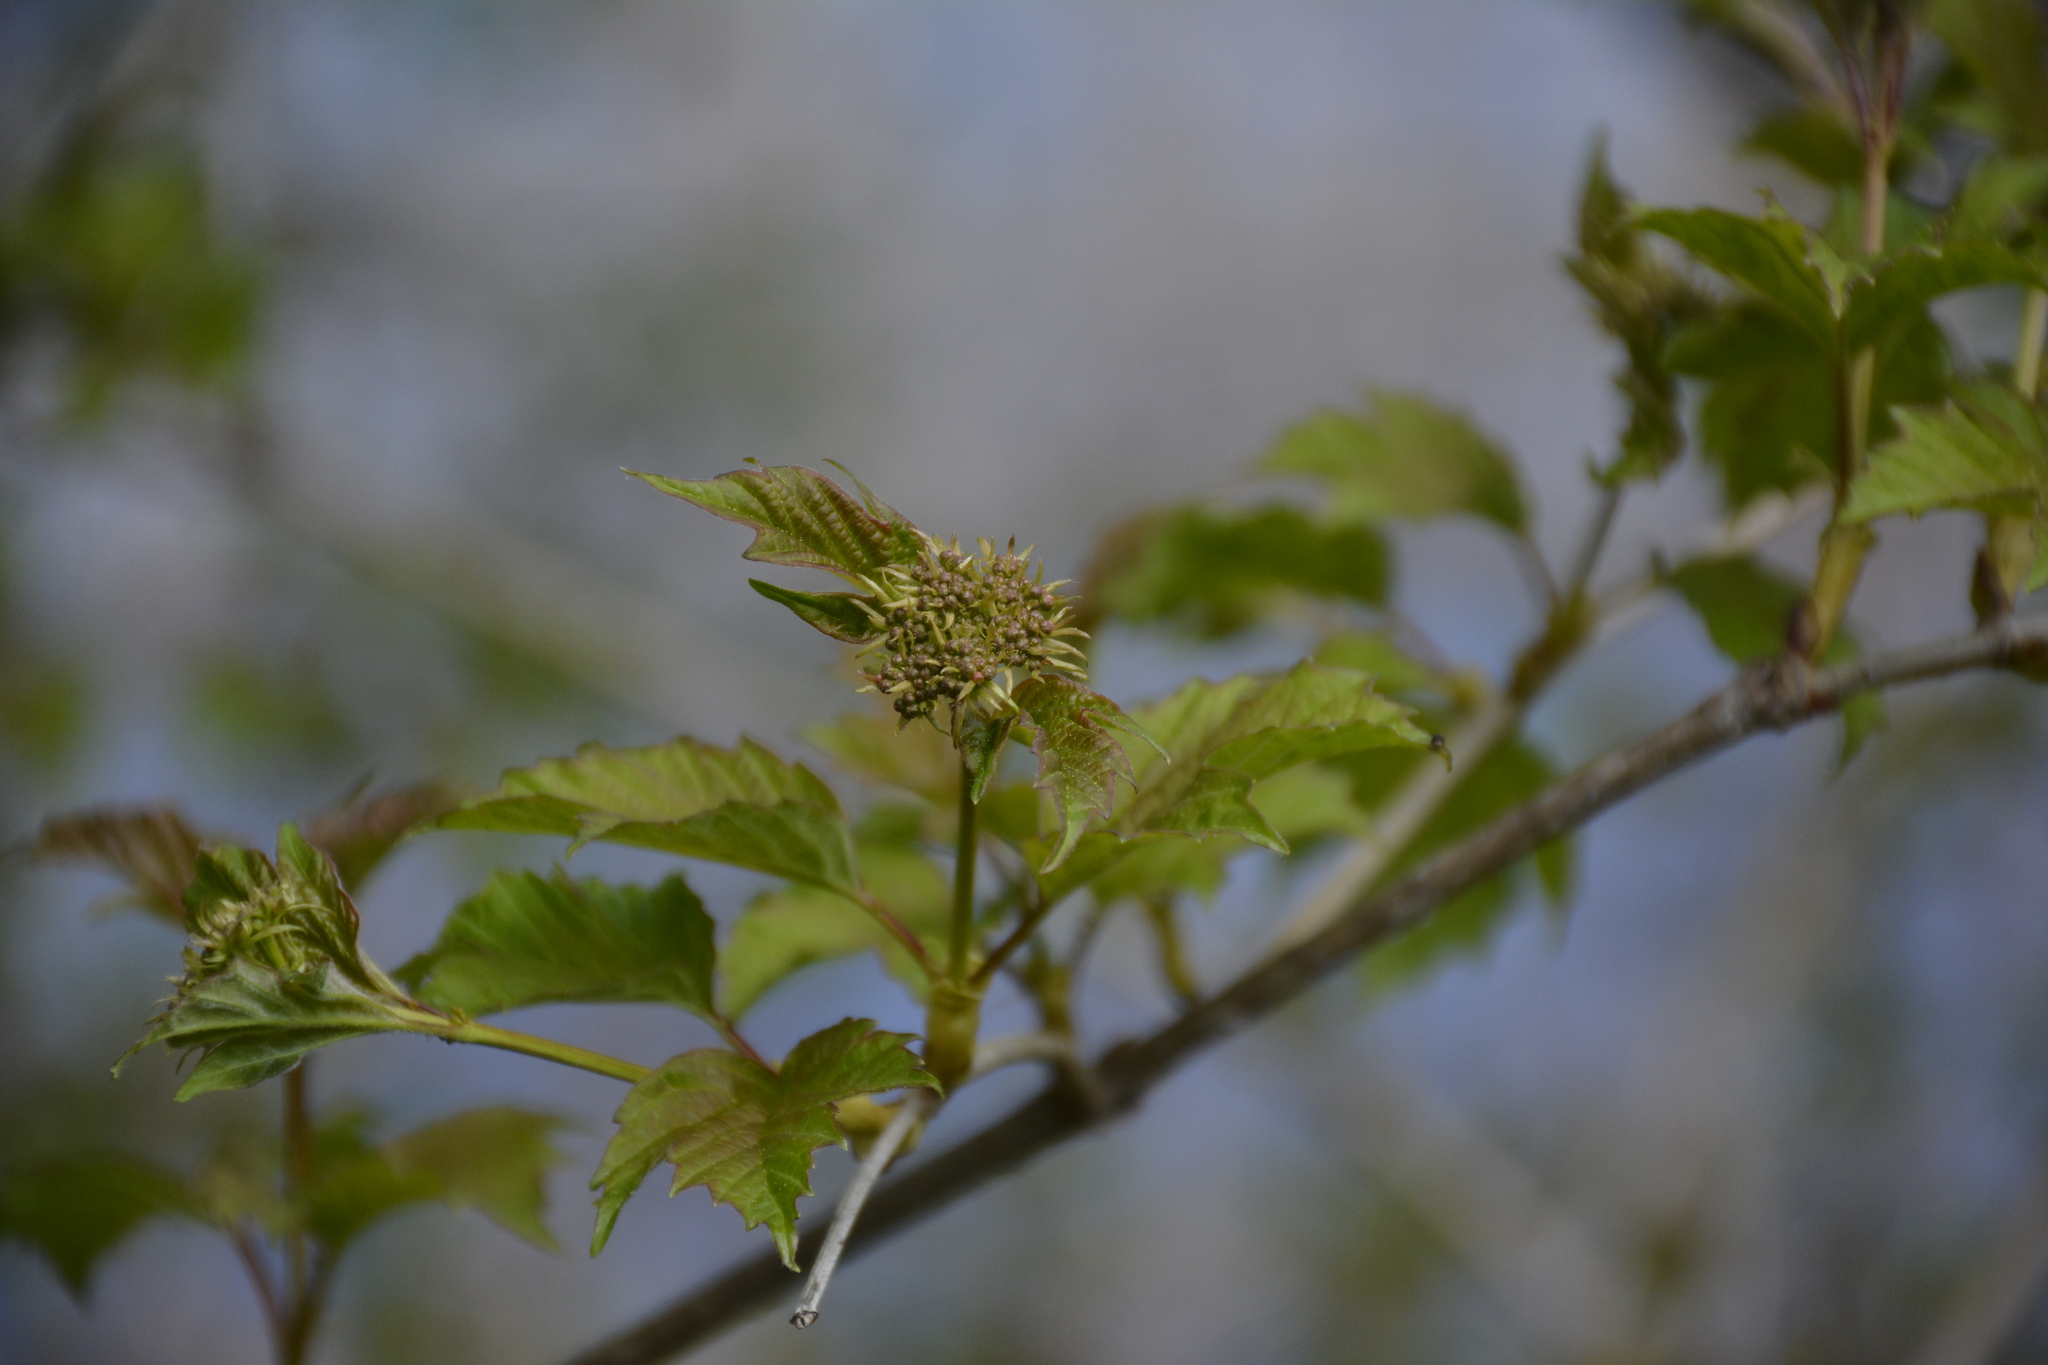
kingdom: Plantae
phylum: Tracheophyta
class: Magnoliopsida
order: Dipsacales
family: Viburnaceae
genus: Viburnum
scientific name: Viburnum opulus
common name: Guelder-rose
